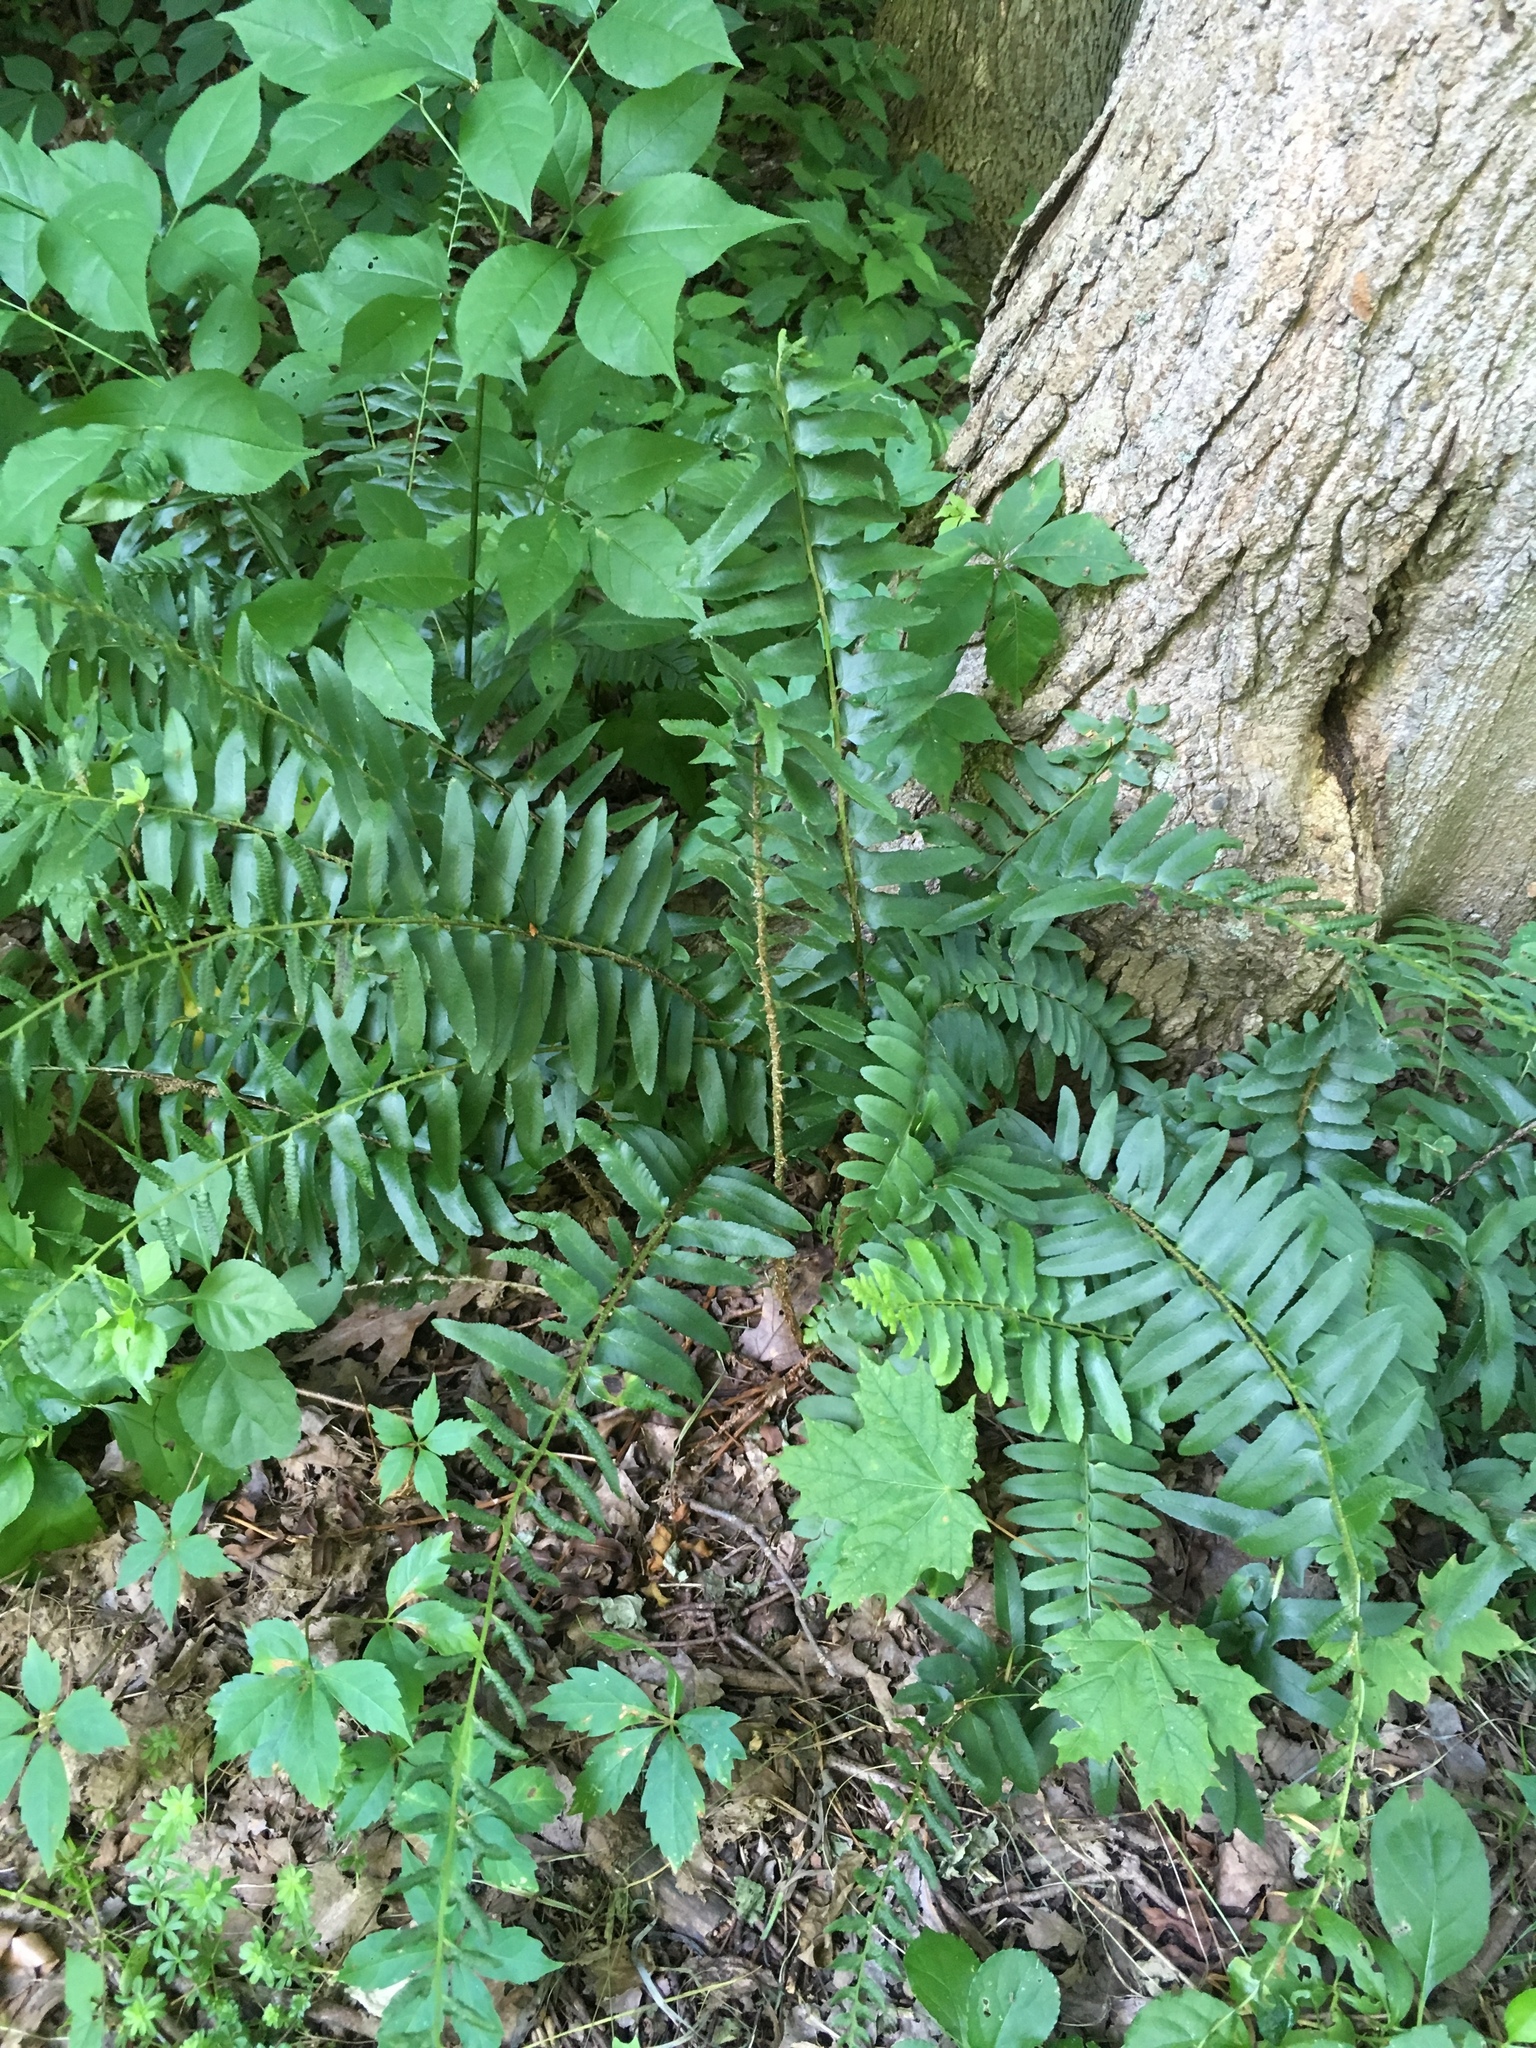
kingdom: Plantae
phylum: Tracheophyta
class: Polypodiopsida
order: Polypodiales
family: Dryopteridaceae
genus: Polystichum
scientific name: Polystichum acrostichoides
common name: Christmas fern
